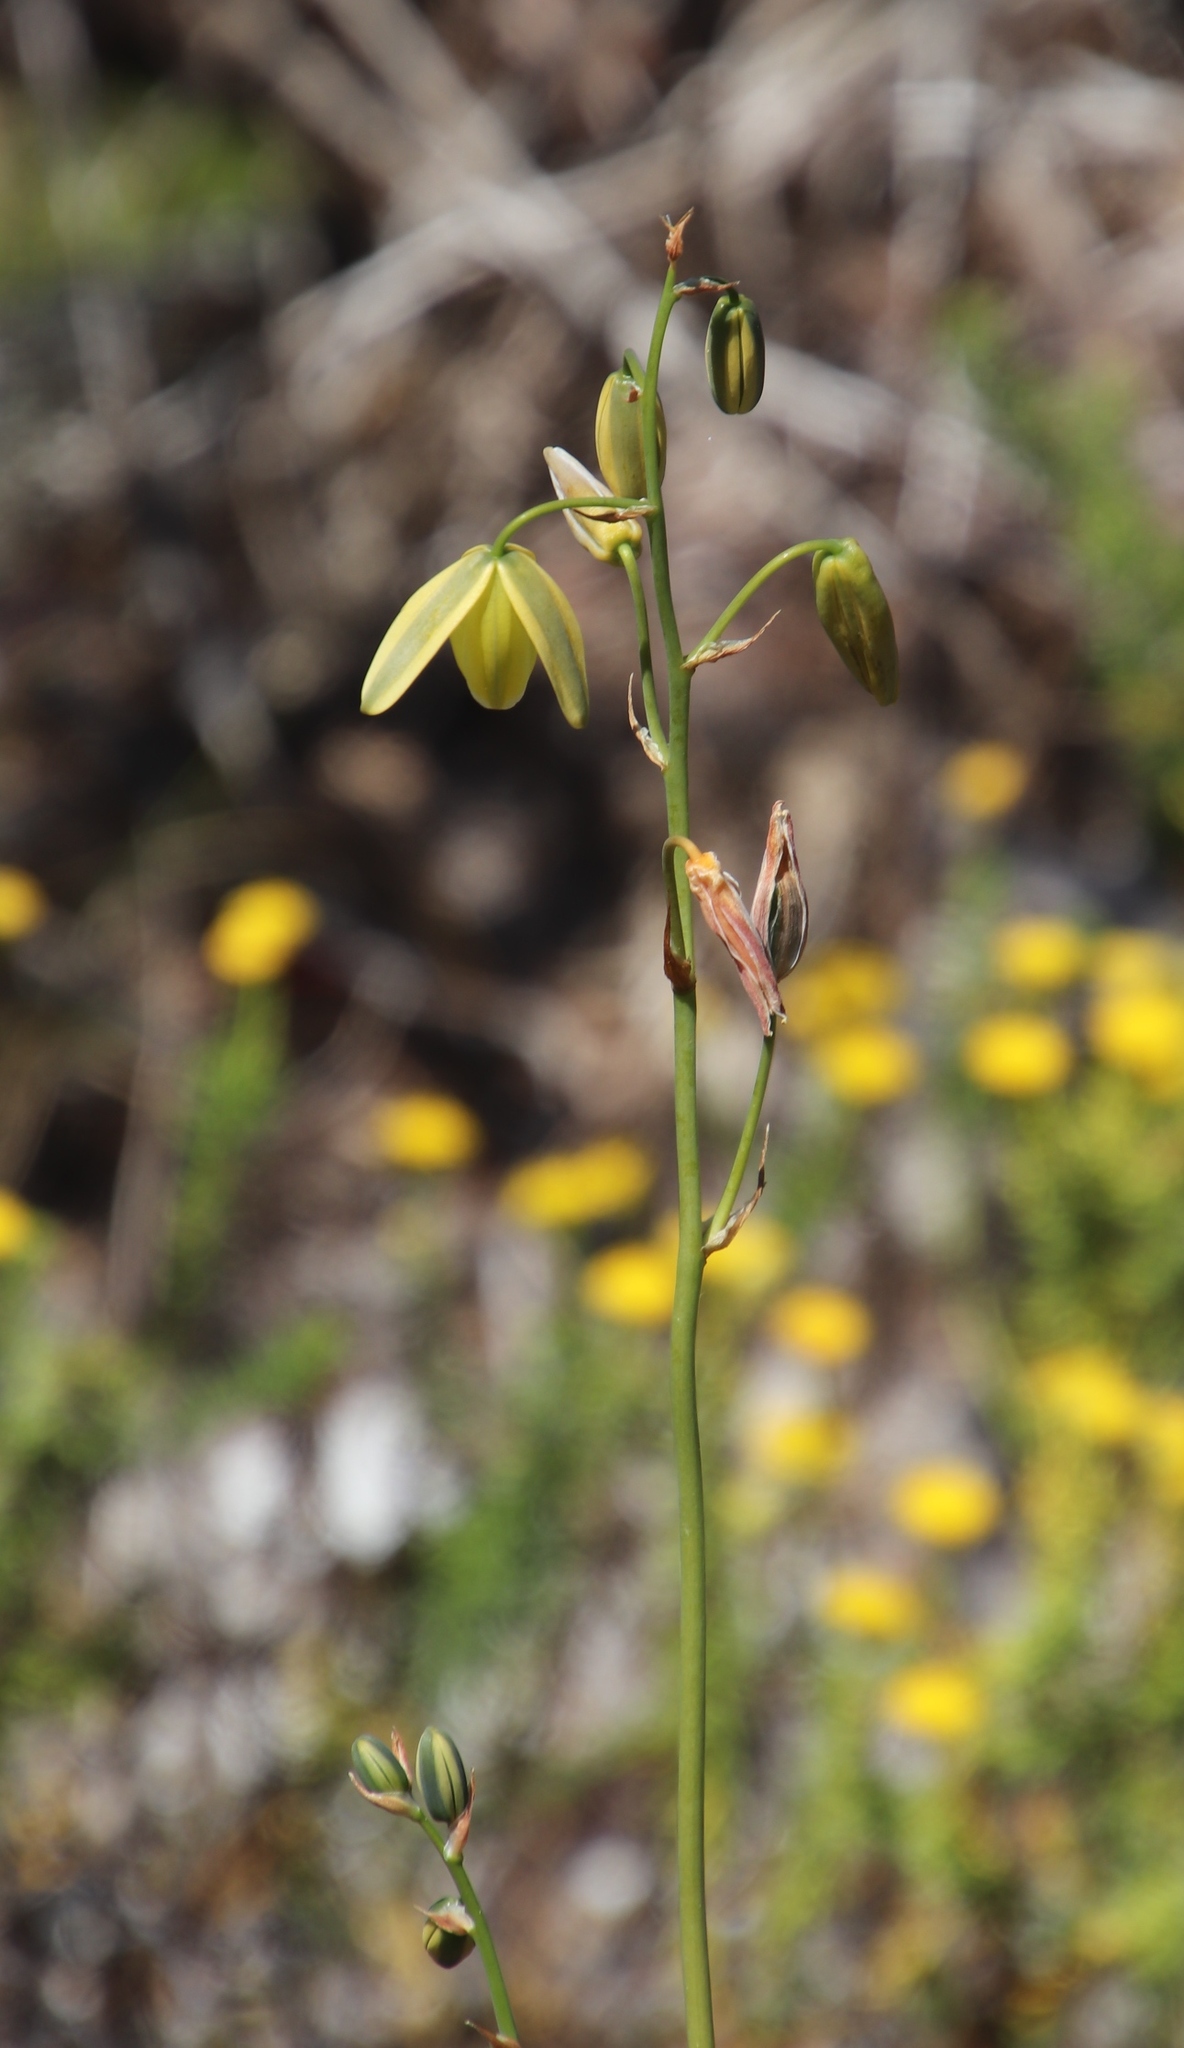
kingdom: Plantae
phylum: Tracheophyta
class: Liliopsida
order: Asparagales
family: Asparagaceae
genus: Albuca
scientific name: Albuca cooperi
